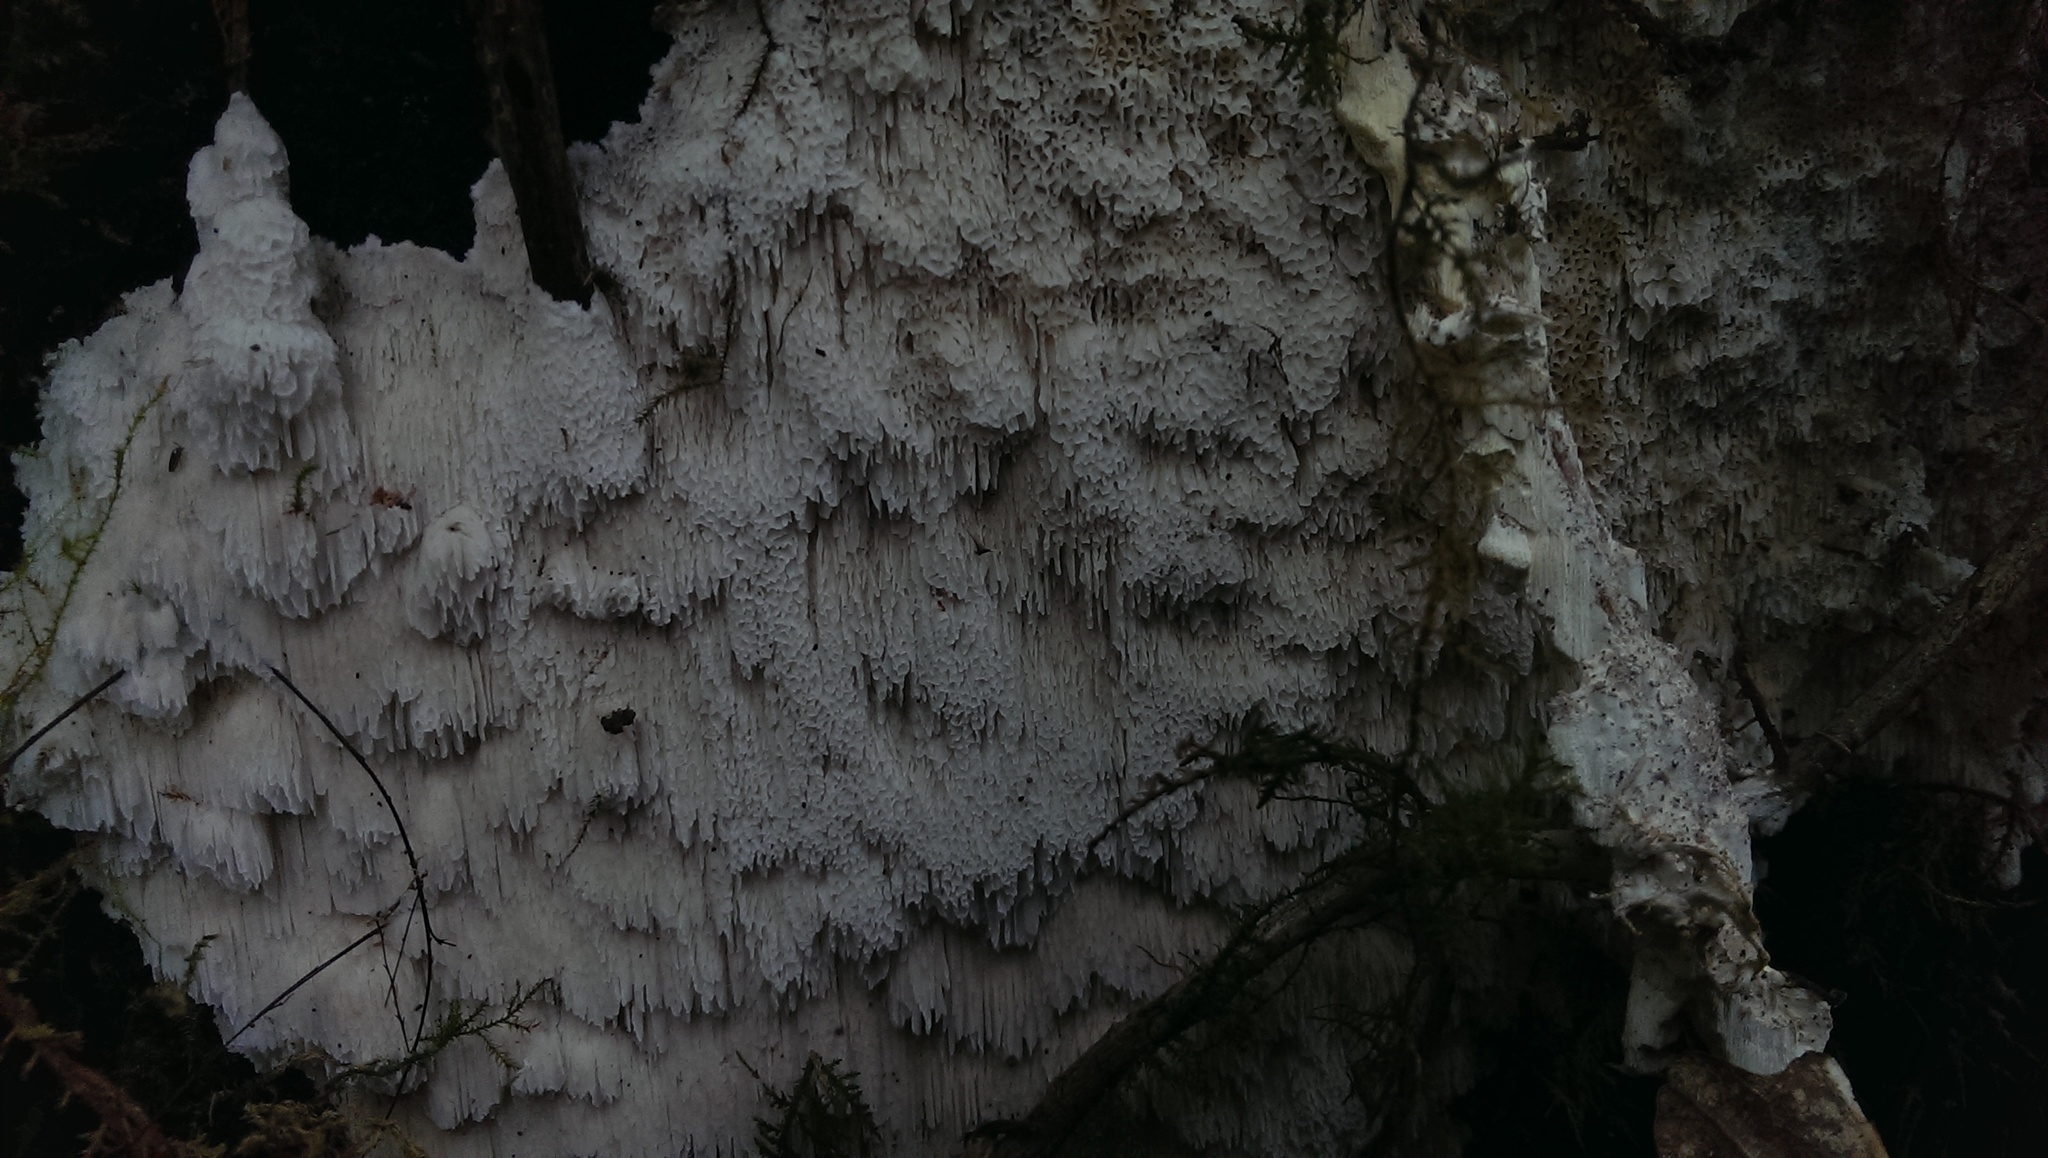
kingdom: Fungi
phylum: Basidiomycota
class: Agaricomycetes
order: Hymenochaetales
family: Schizoporaceae
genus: Xylodon
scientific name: Xylodon radula
